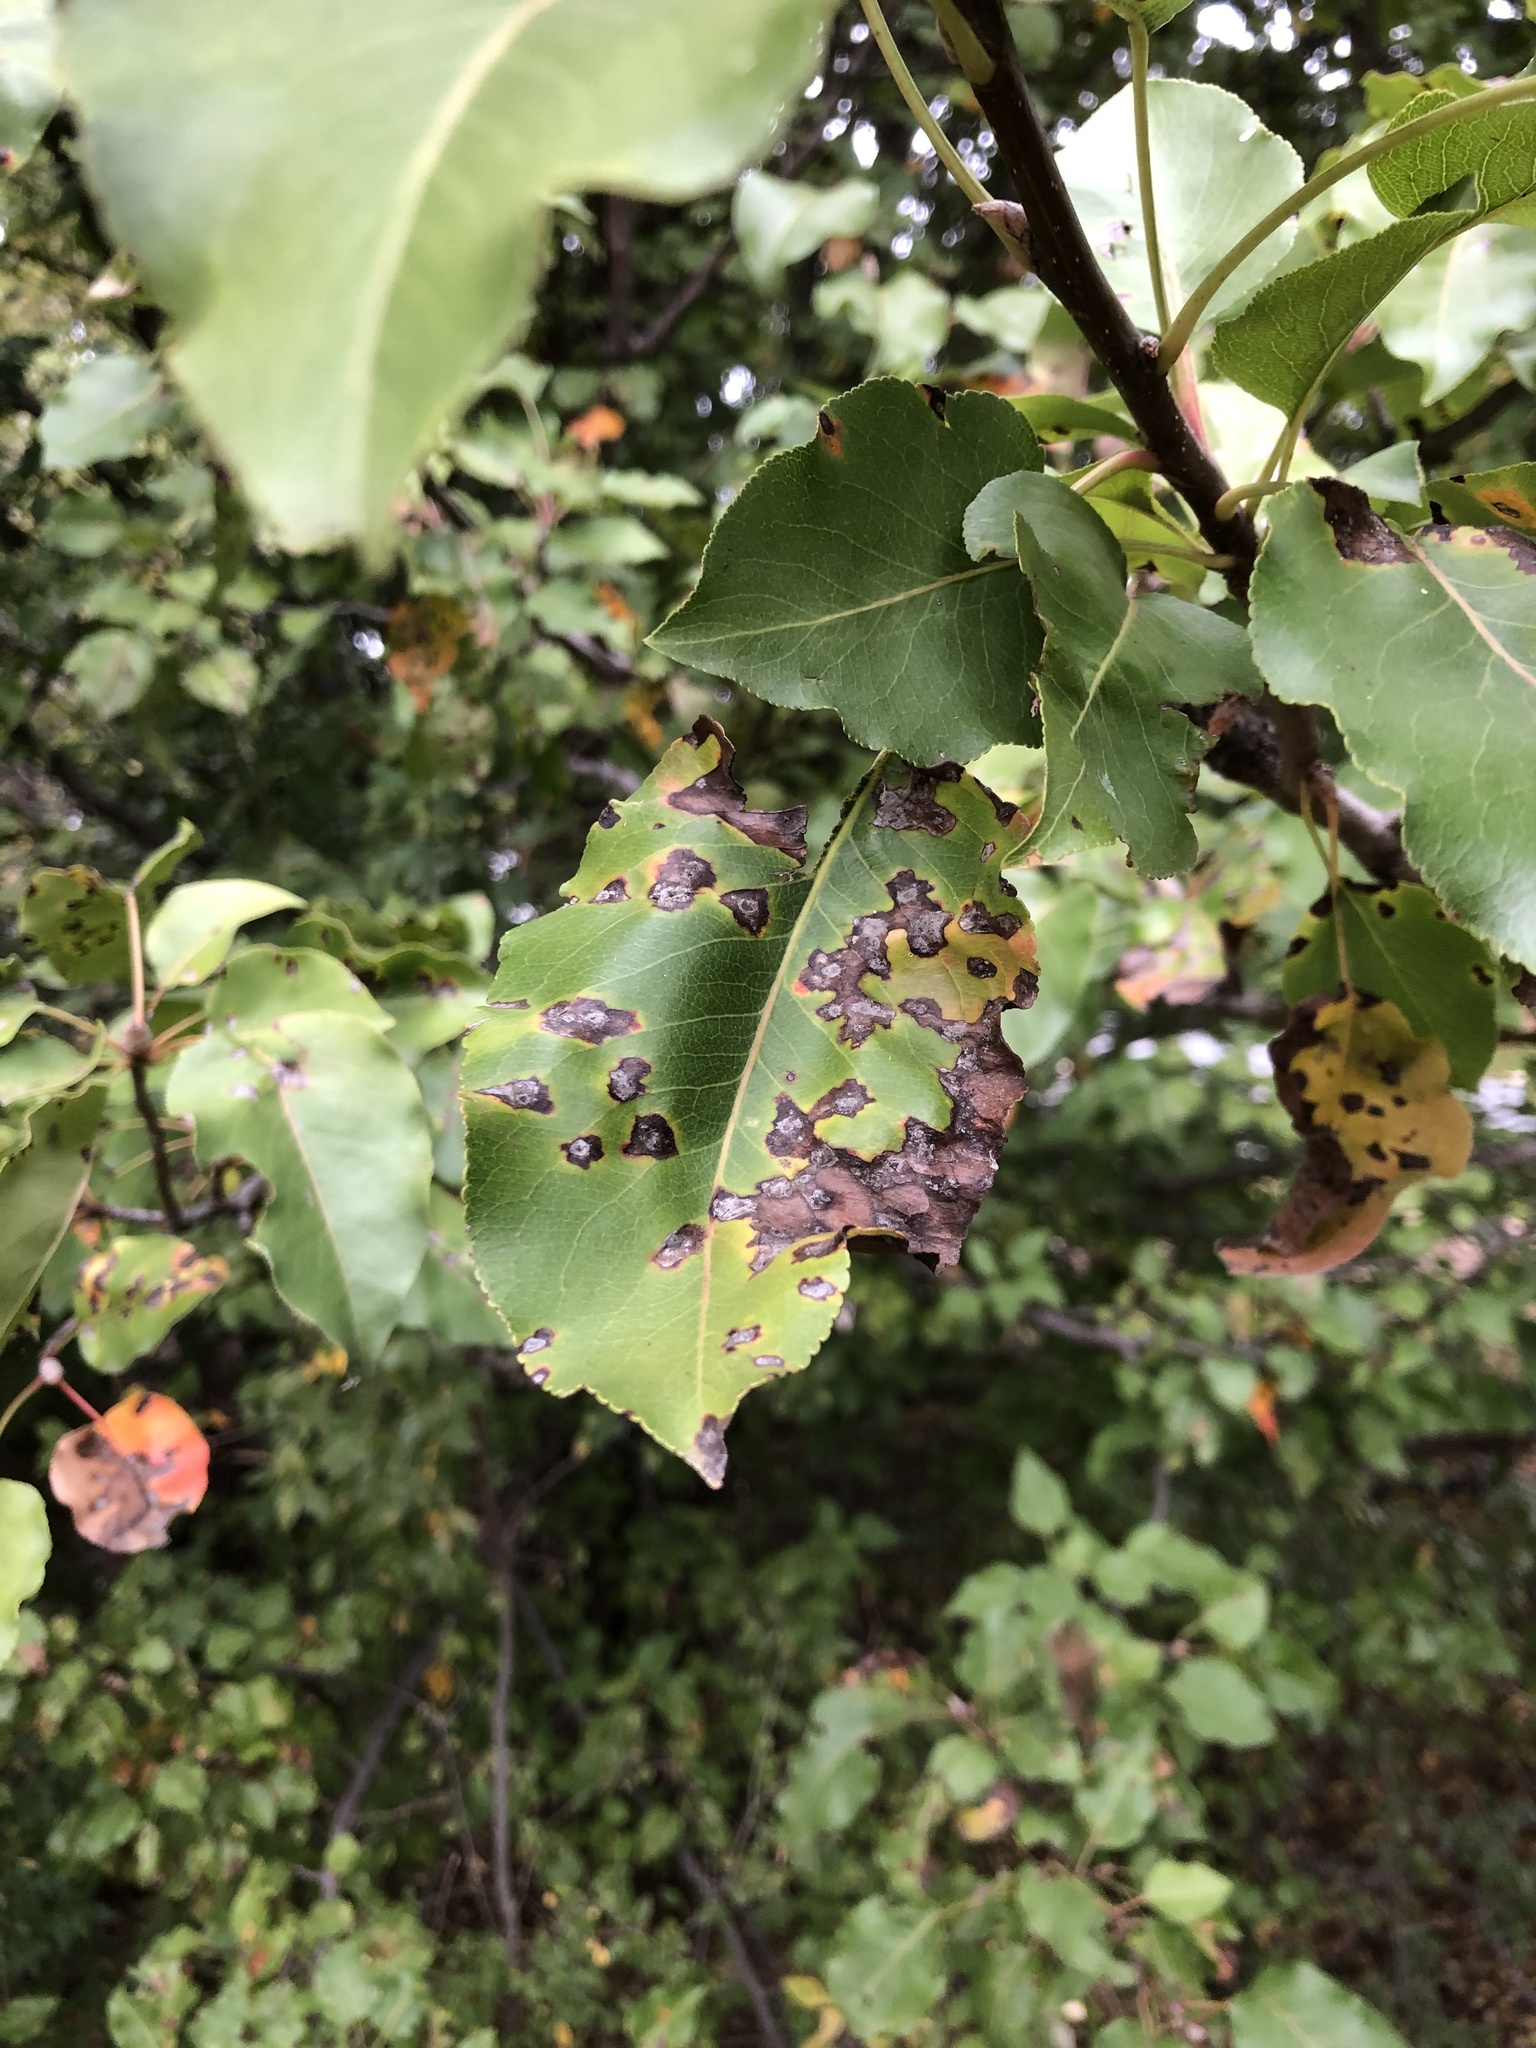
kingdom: Plantae
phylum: Tracheophyta
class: Magnoliopsida
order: Rosales
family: Rosaceae
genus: Pyrus
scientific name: Pyrus calleryana
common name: Callery pear
